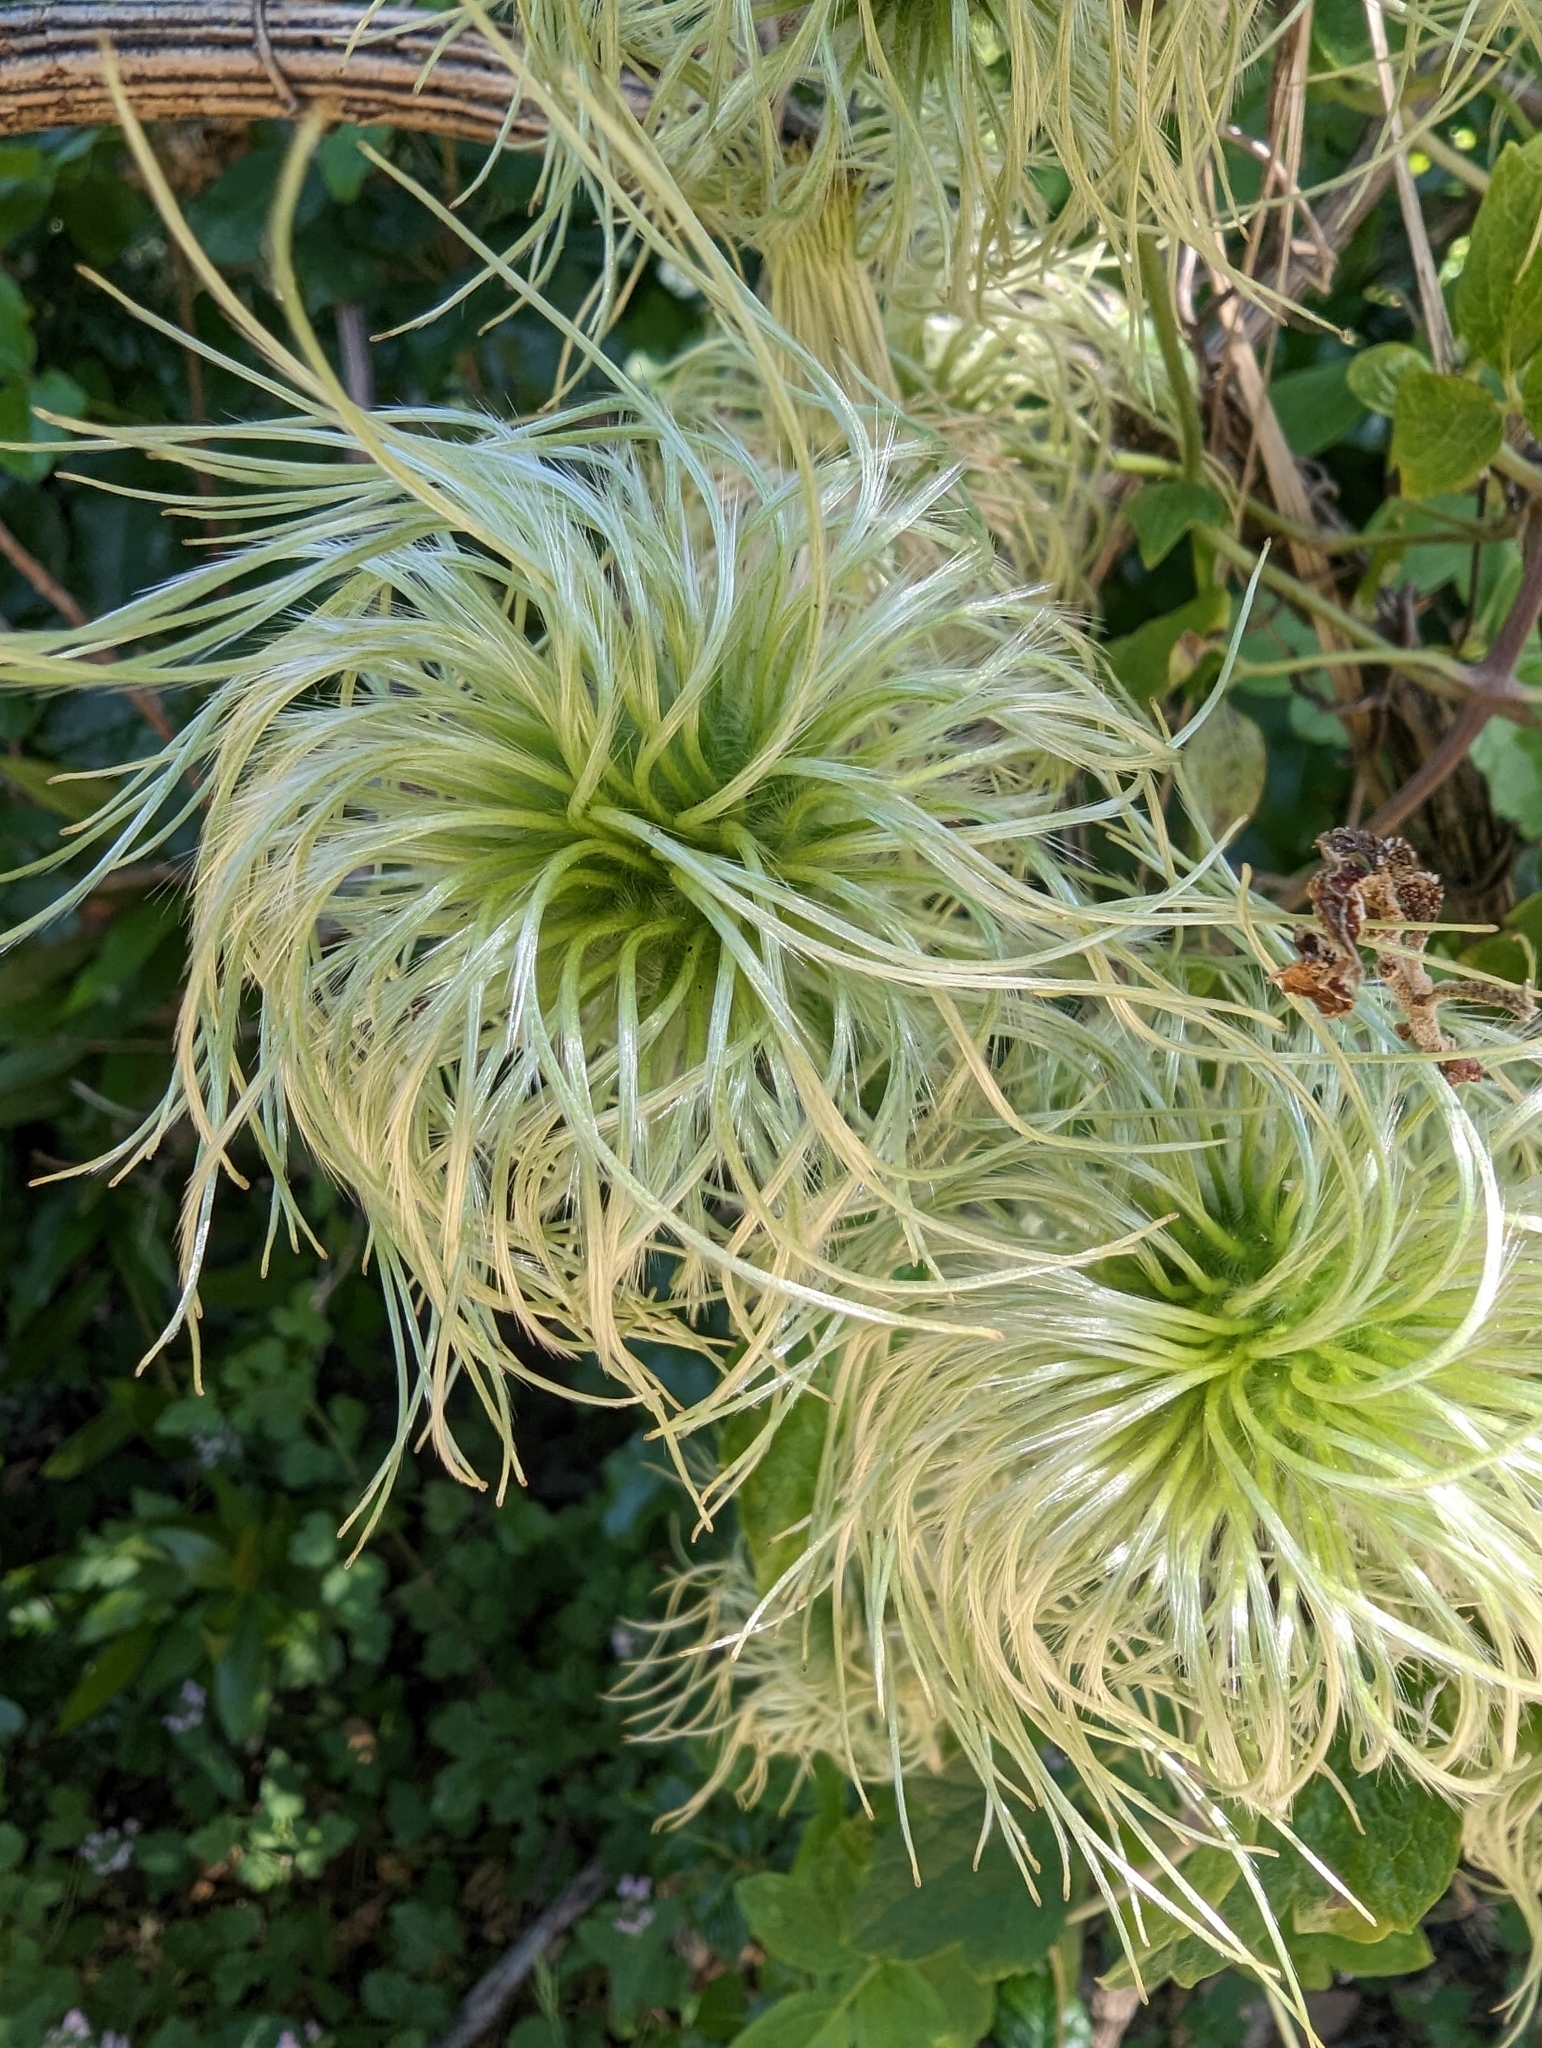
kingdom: Plantae
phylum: Tracheophyta
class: Magnoliopsida
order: Ranunculales
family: Ranunculaceae
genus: Clematis
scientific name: Clematis lasiantha
